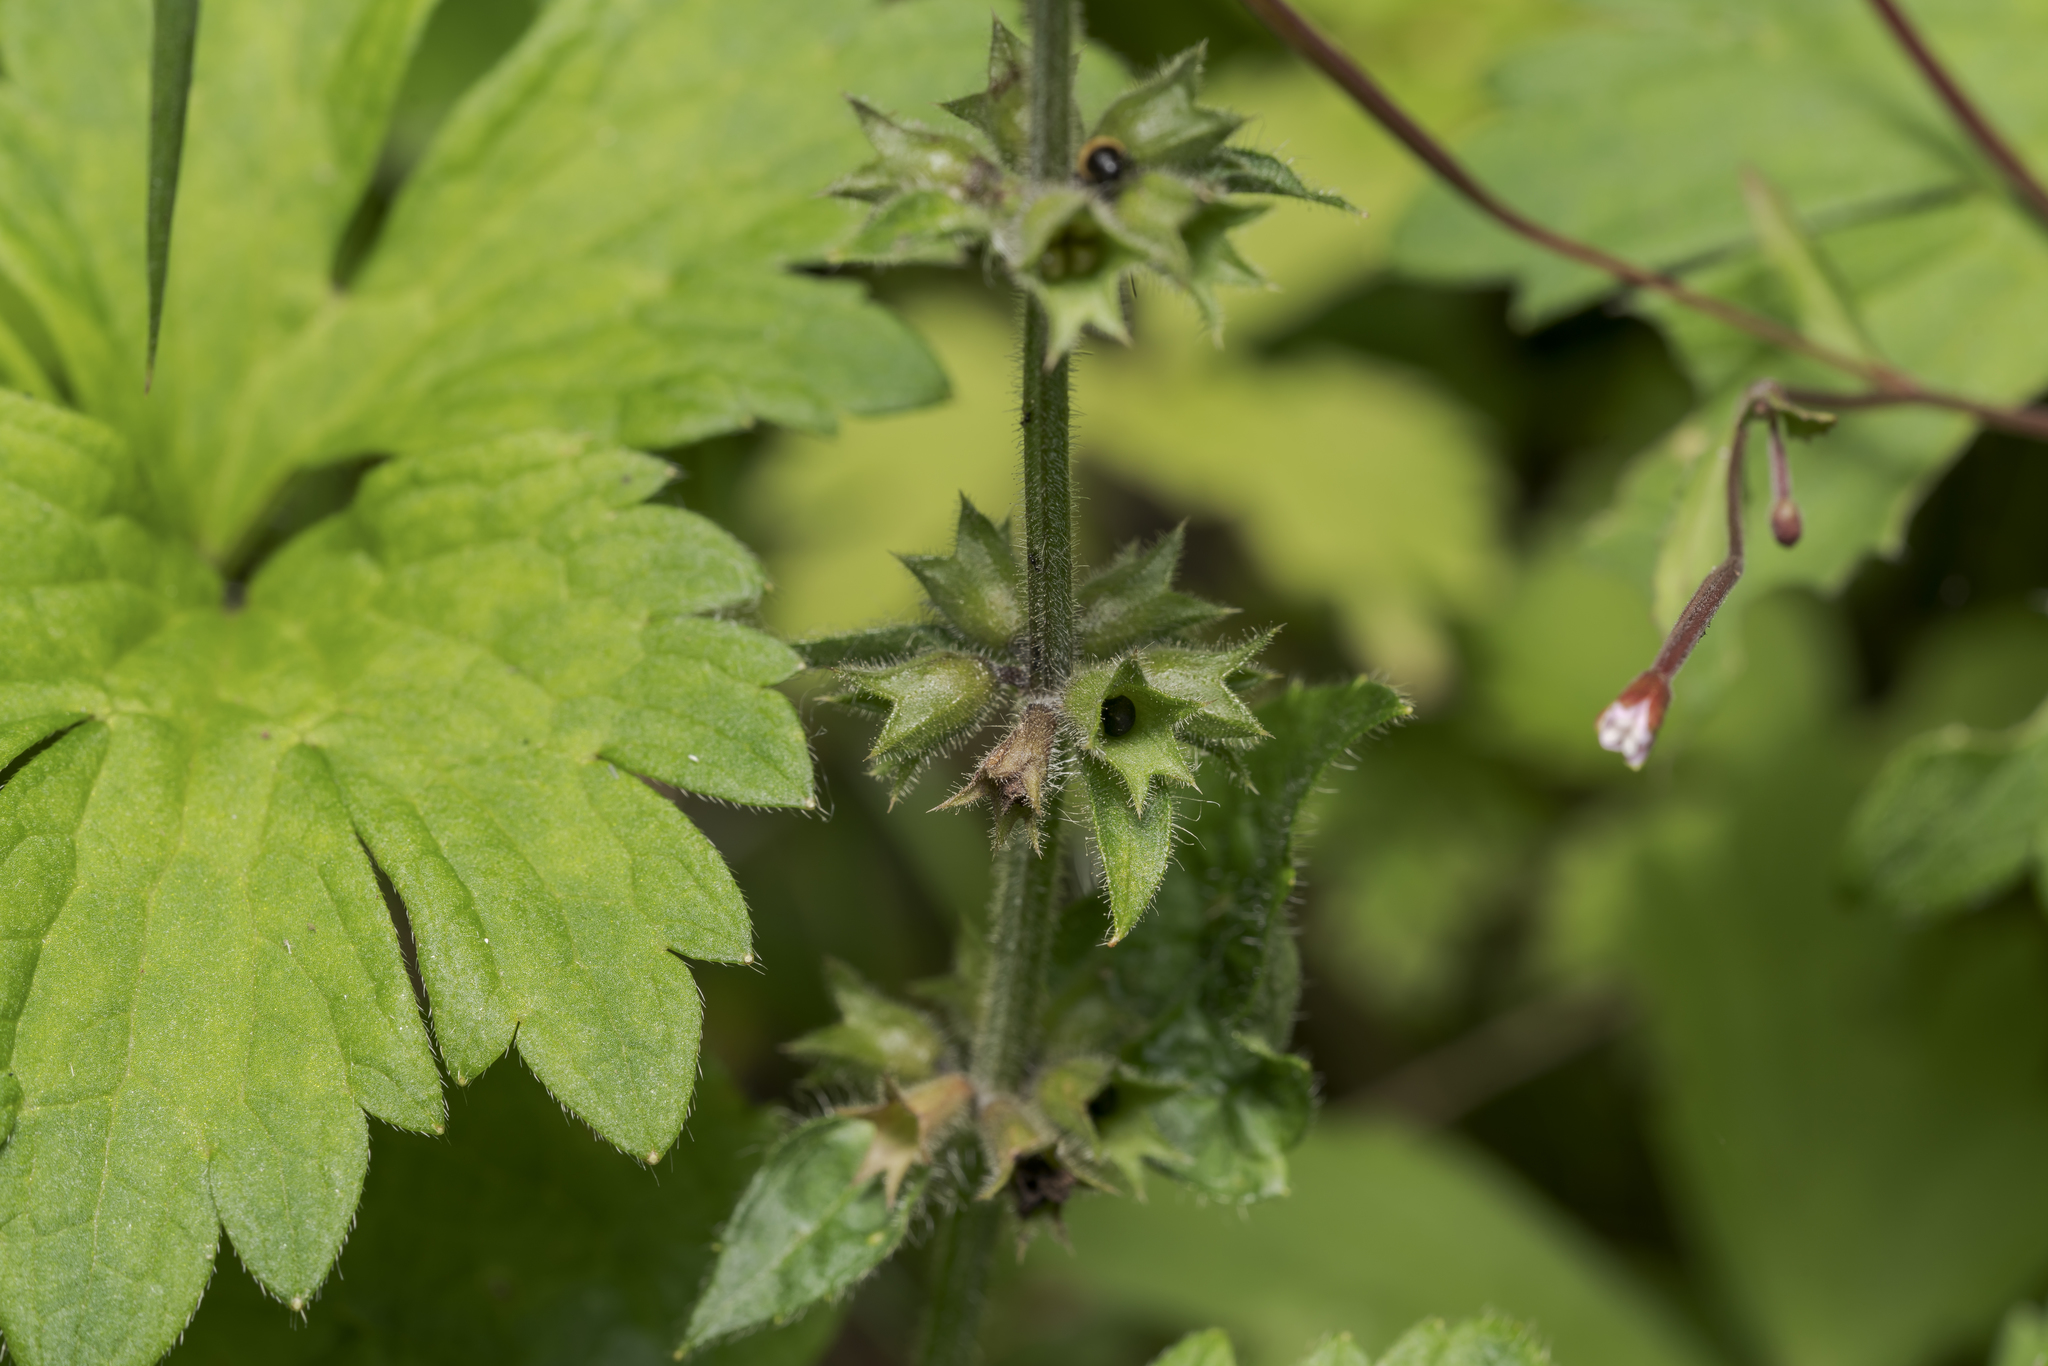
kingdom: Plantae
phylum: Tracheophyta
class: Magnoliopsida
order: Lamiales
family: Lamiaceae
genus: Stachys
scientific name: Stachys sylvatica
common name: Hedge woundwort
